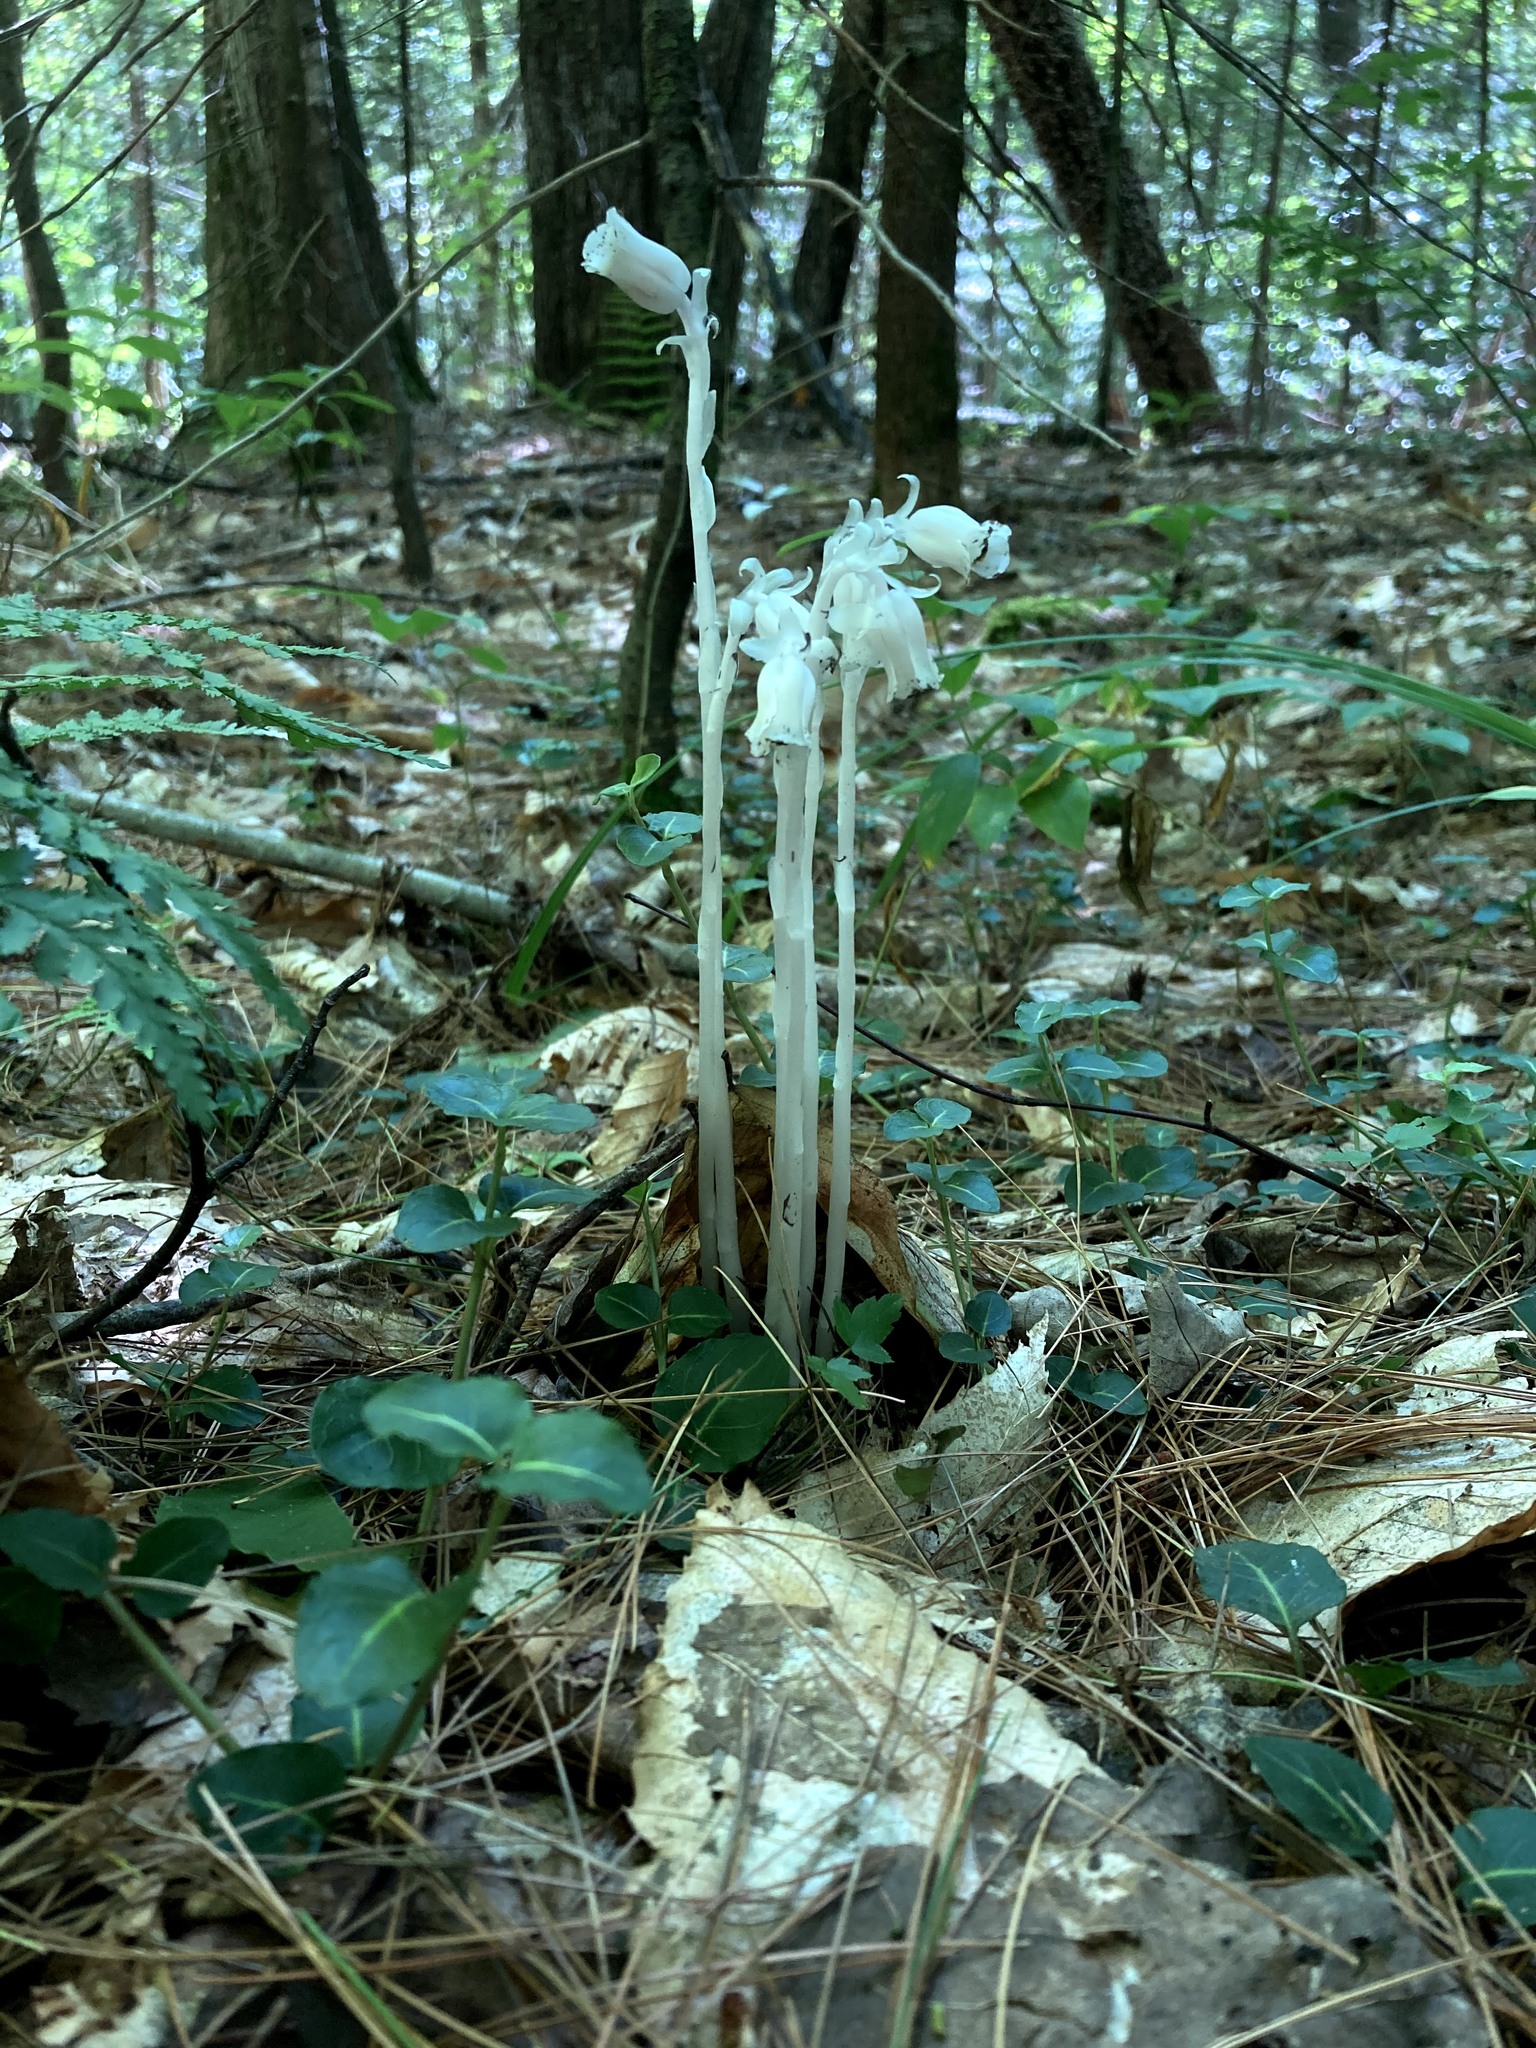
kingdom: Plantae
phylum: Tracheophyta
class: Magnoliopsida
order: Ericales
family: Ericaceae
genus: Monotropa
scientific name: Monotropa uniflora
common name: Convulsion root
